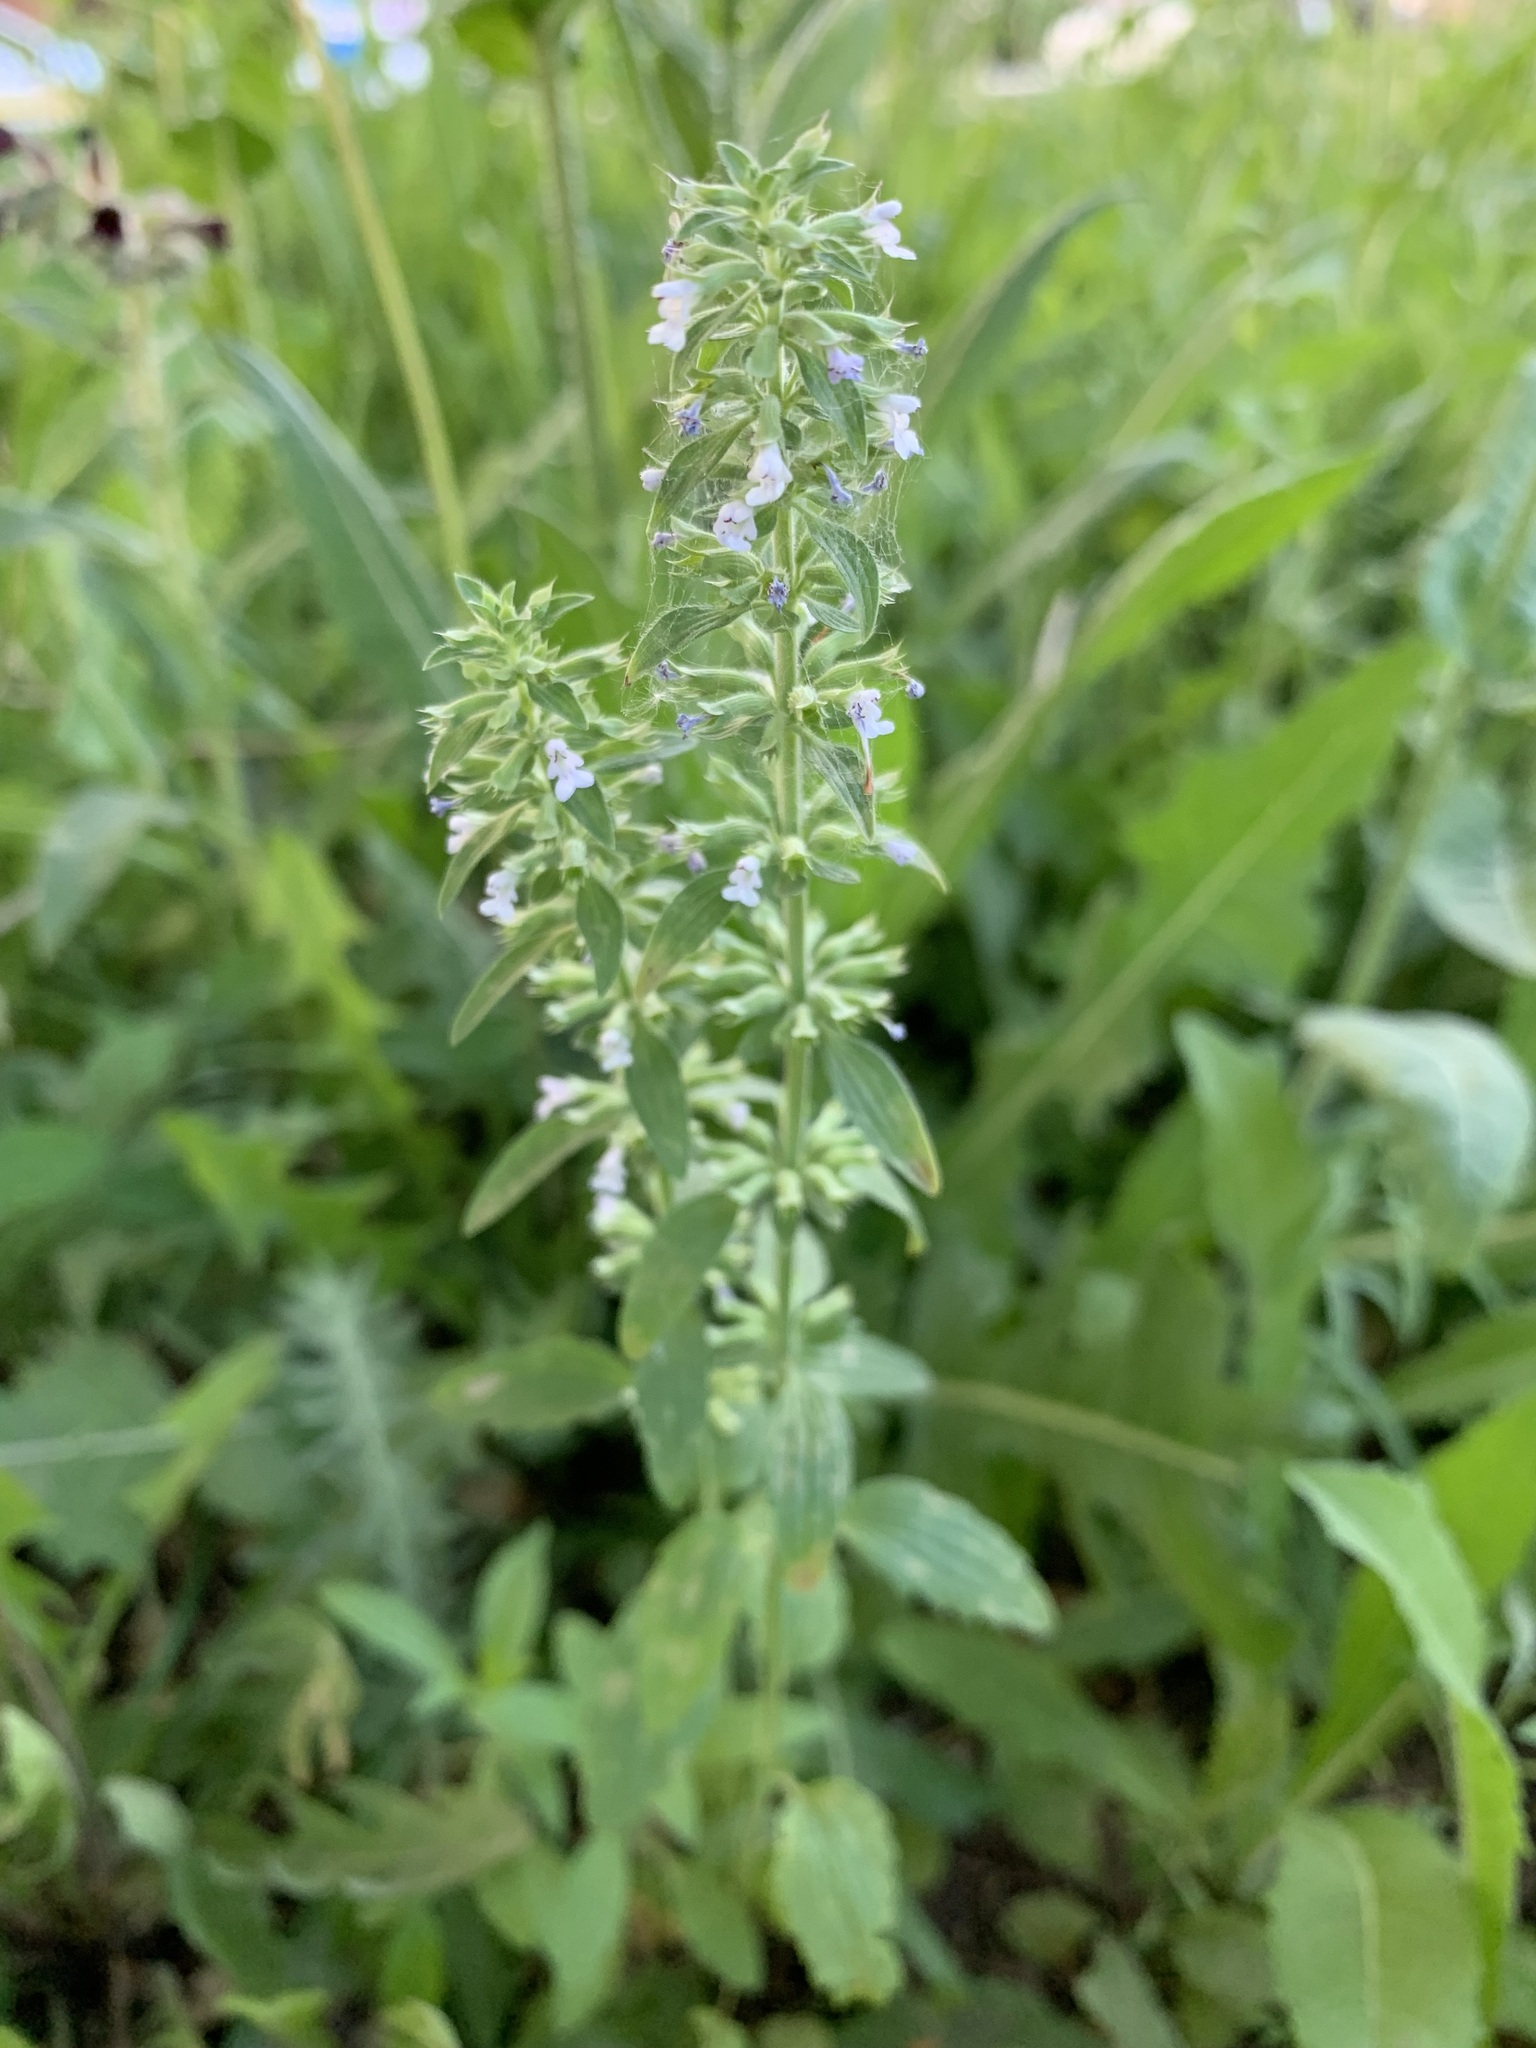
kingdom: Plantae
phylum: Tracheophyta
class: Magnoliopsida
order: Lamiales
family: Lamiaceae
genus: Dracocephalum
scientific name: Dracocephalum thymiflorum
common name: Thymeleaf dragonhead
